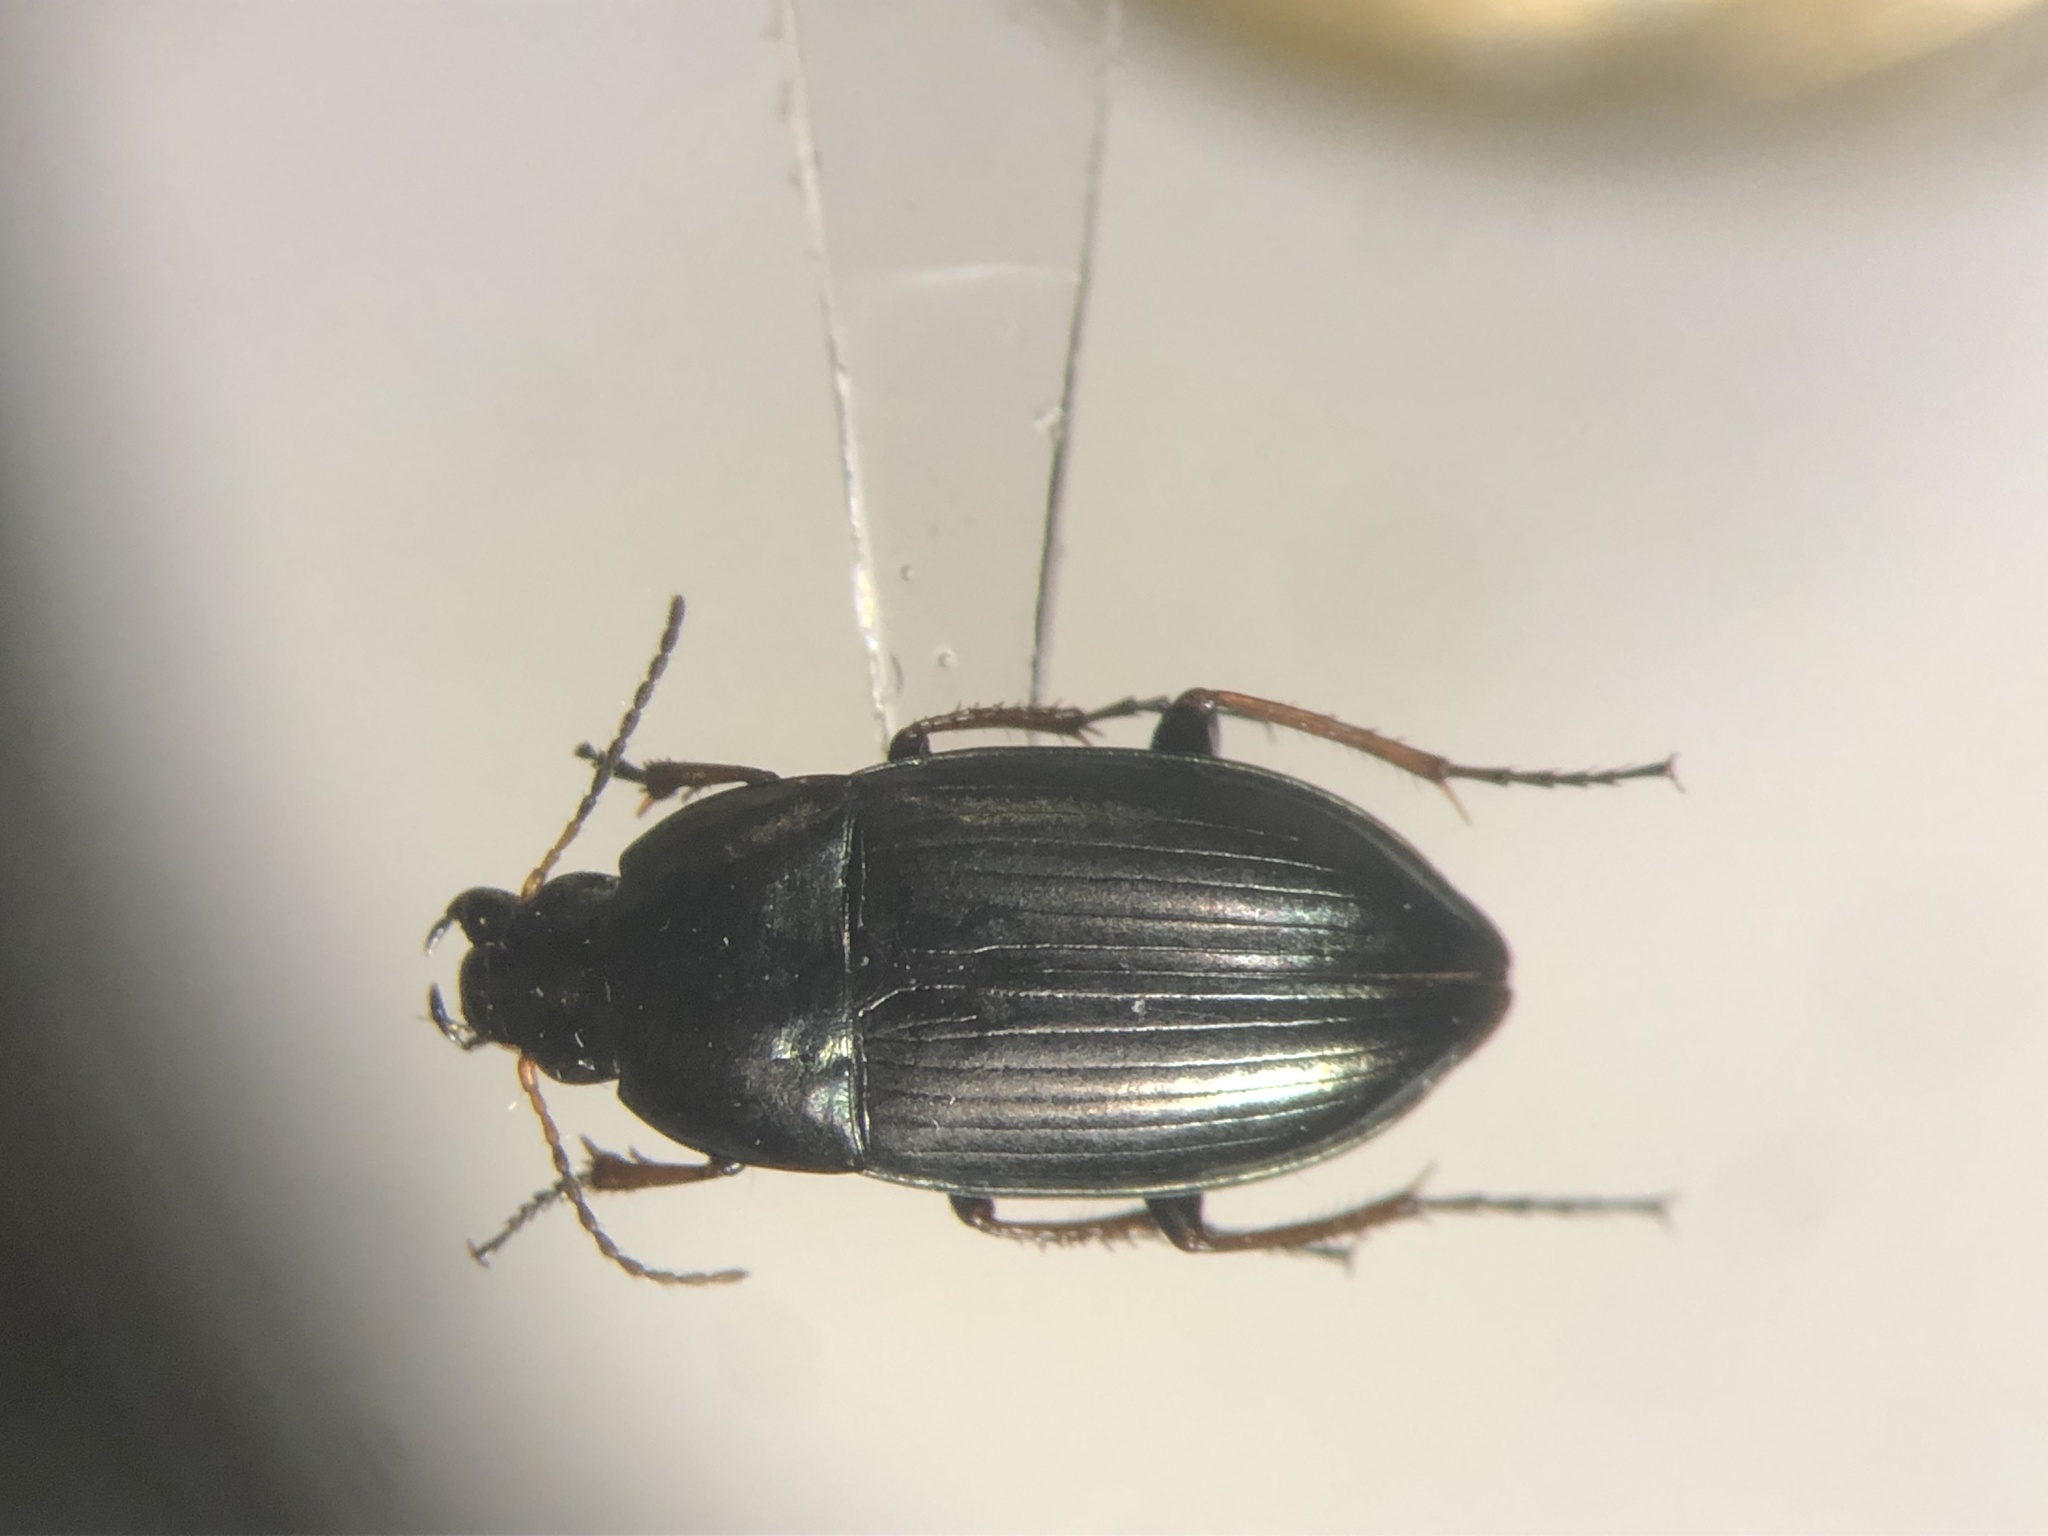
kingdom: Animalia
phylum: Arthropoda
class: Insecta
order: Coleoptera
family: Carabidae
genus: Amara
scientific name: Amara aenea
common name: Common sun beetle
